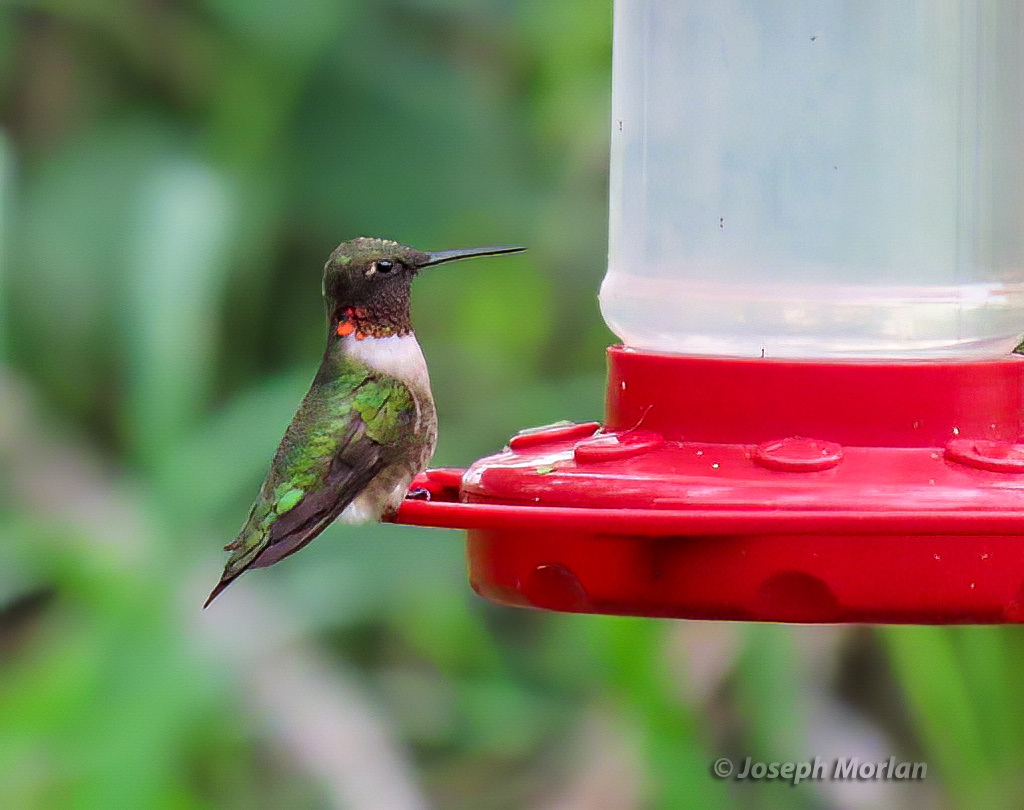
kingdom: Animalia
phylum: Chordata
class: Aves
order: Apodiformes
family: Trochilidae
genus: Archilochus
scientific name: Archilochus colubris
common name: Ruby-throated hummingbird
